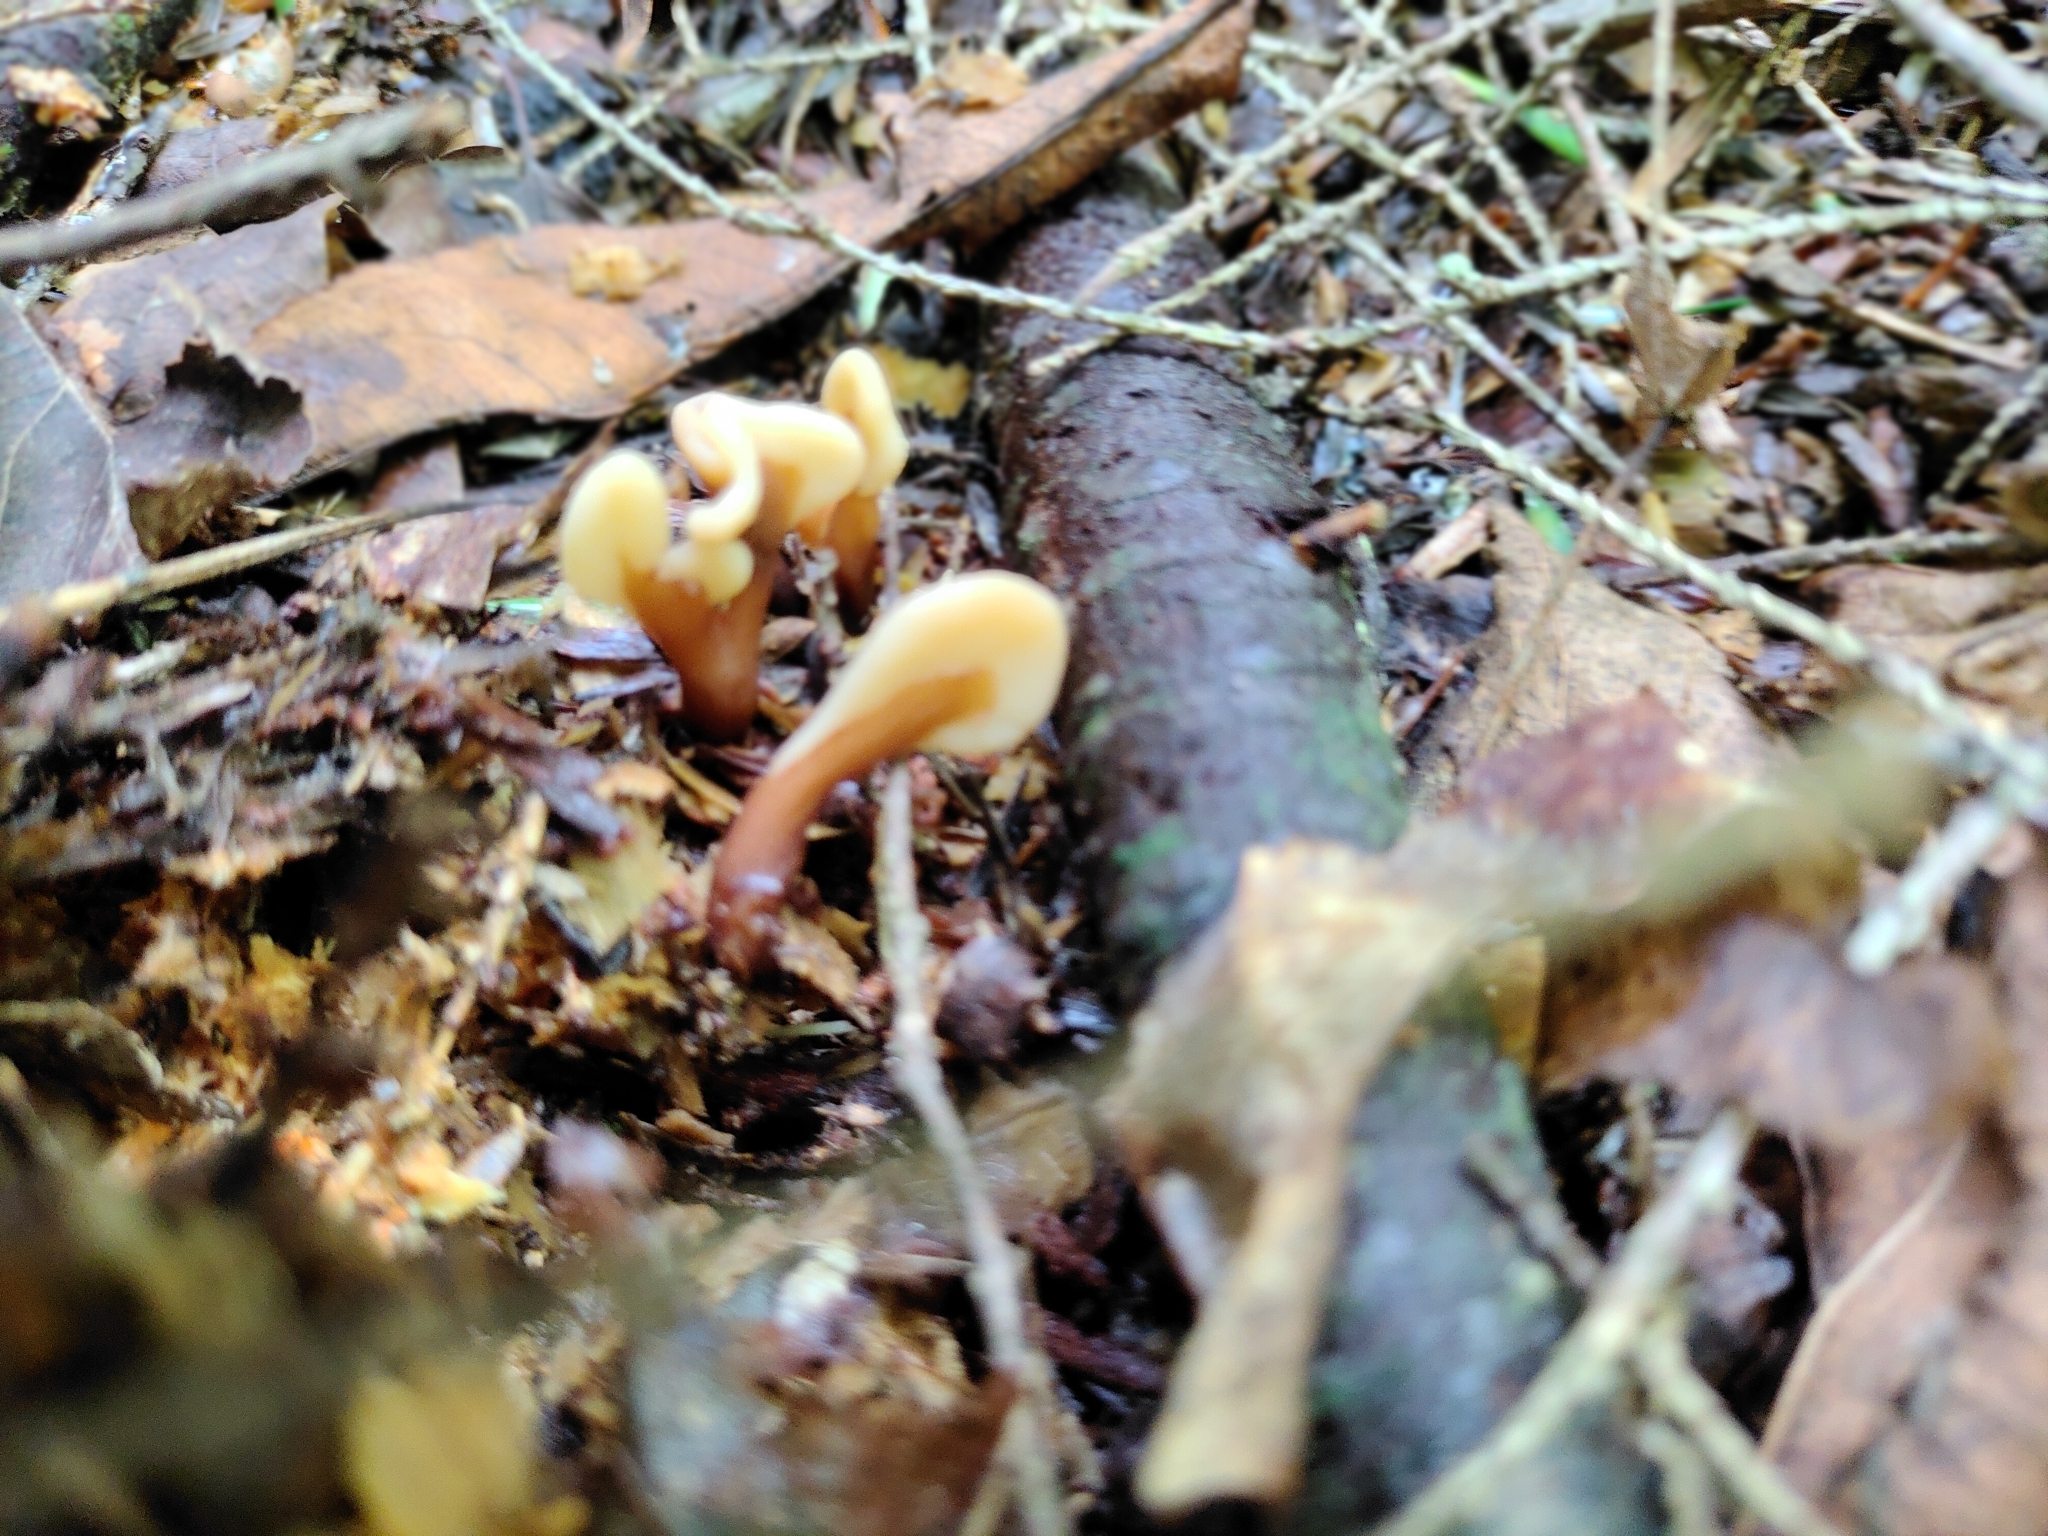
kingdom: Fungi
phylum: Ascomycota
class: Leotiomycetes
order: Rhytismatales
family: Cudoniaceae
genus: Spathulariopsis
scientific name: Spathulariopsis velutipes
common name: Velvet-foot fairy fan
